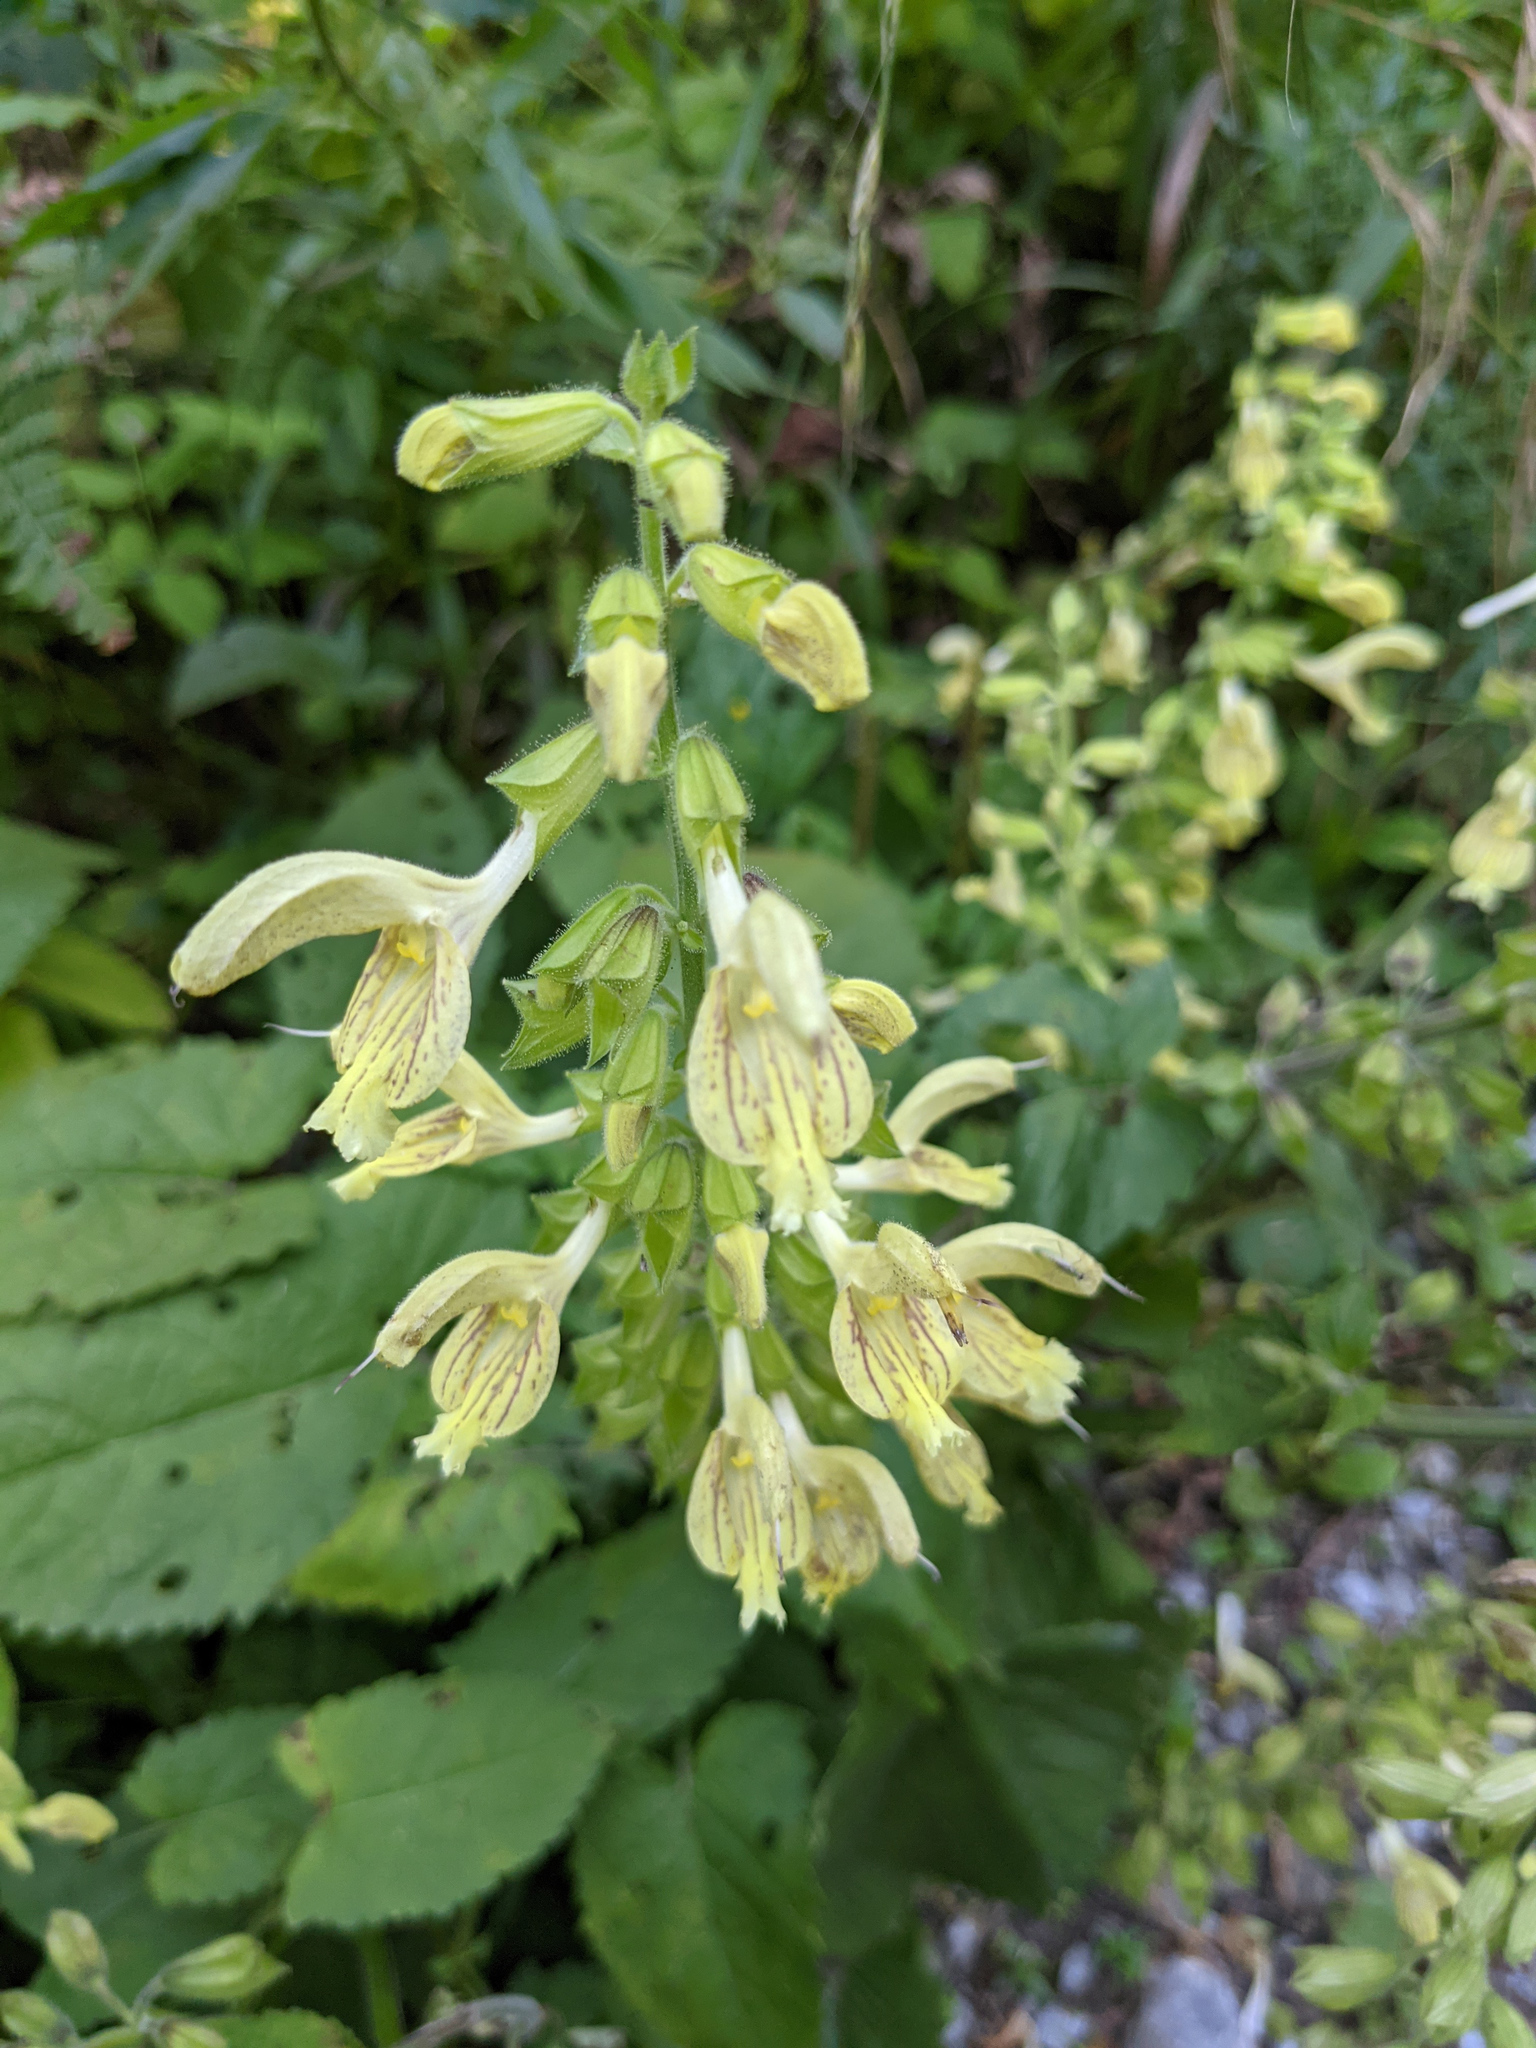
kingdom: Plantae
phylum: Tracheophyta
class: Magnoliopsida
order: Lamiales
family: Lamiaceae
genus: Salvia
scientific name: Salvia glutinosa
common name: Sticky clary
